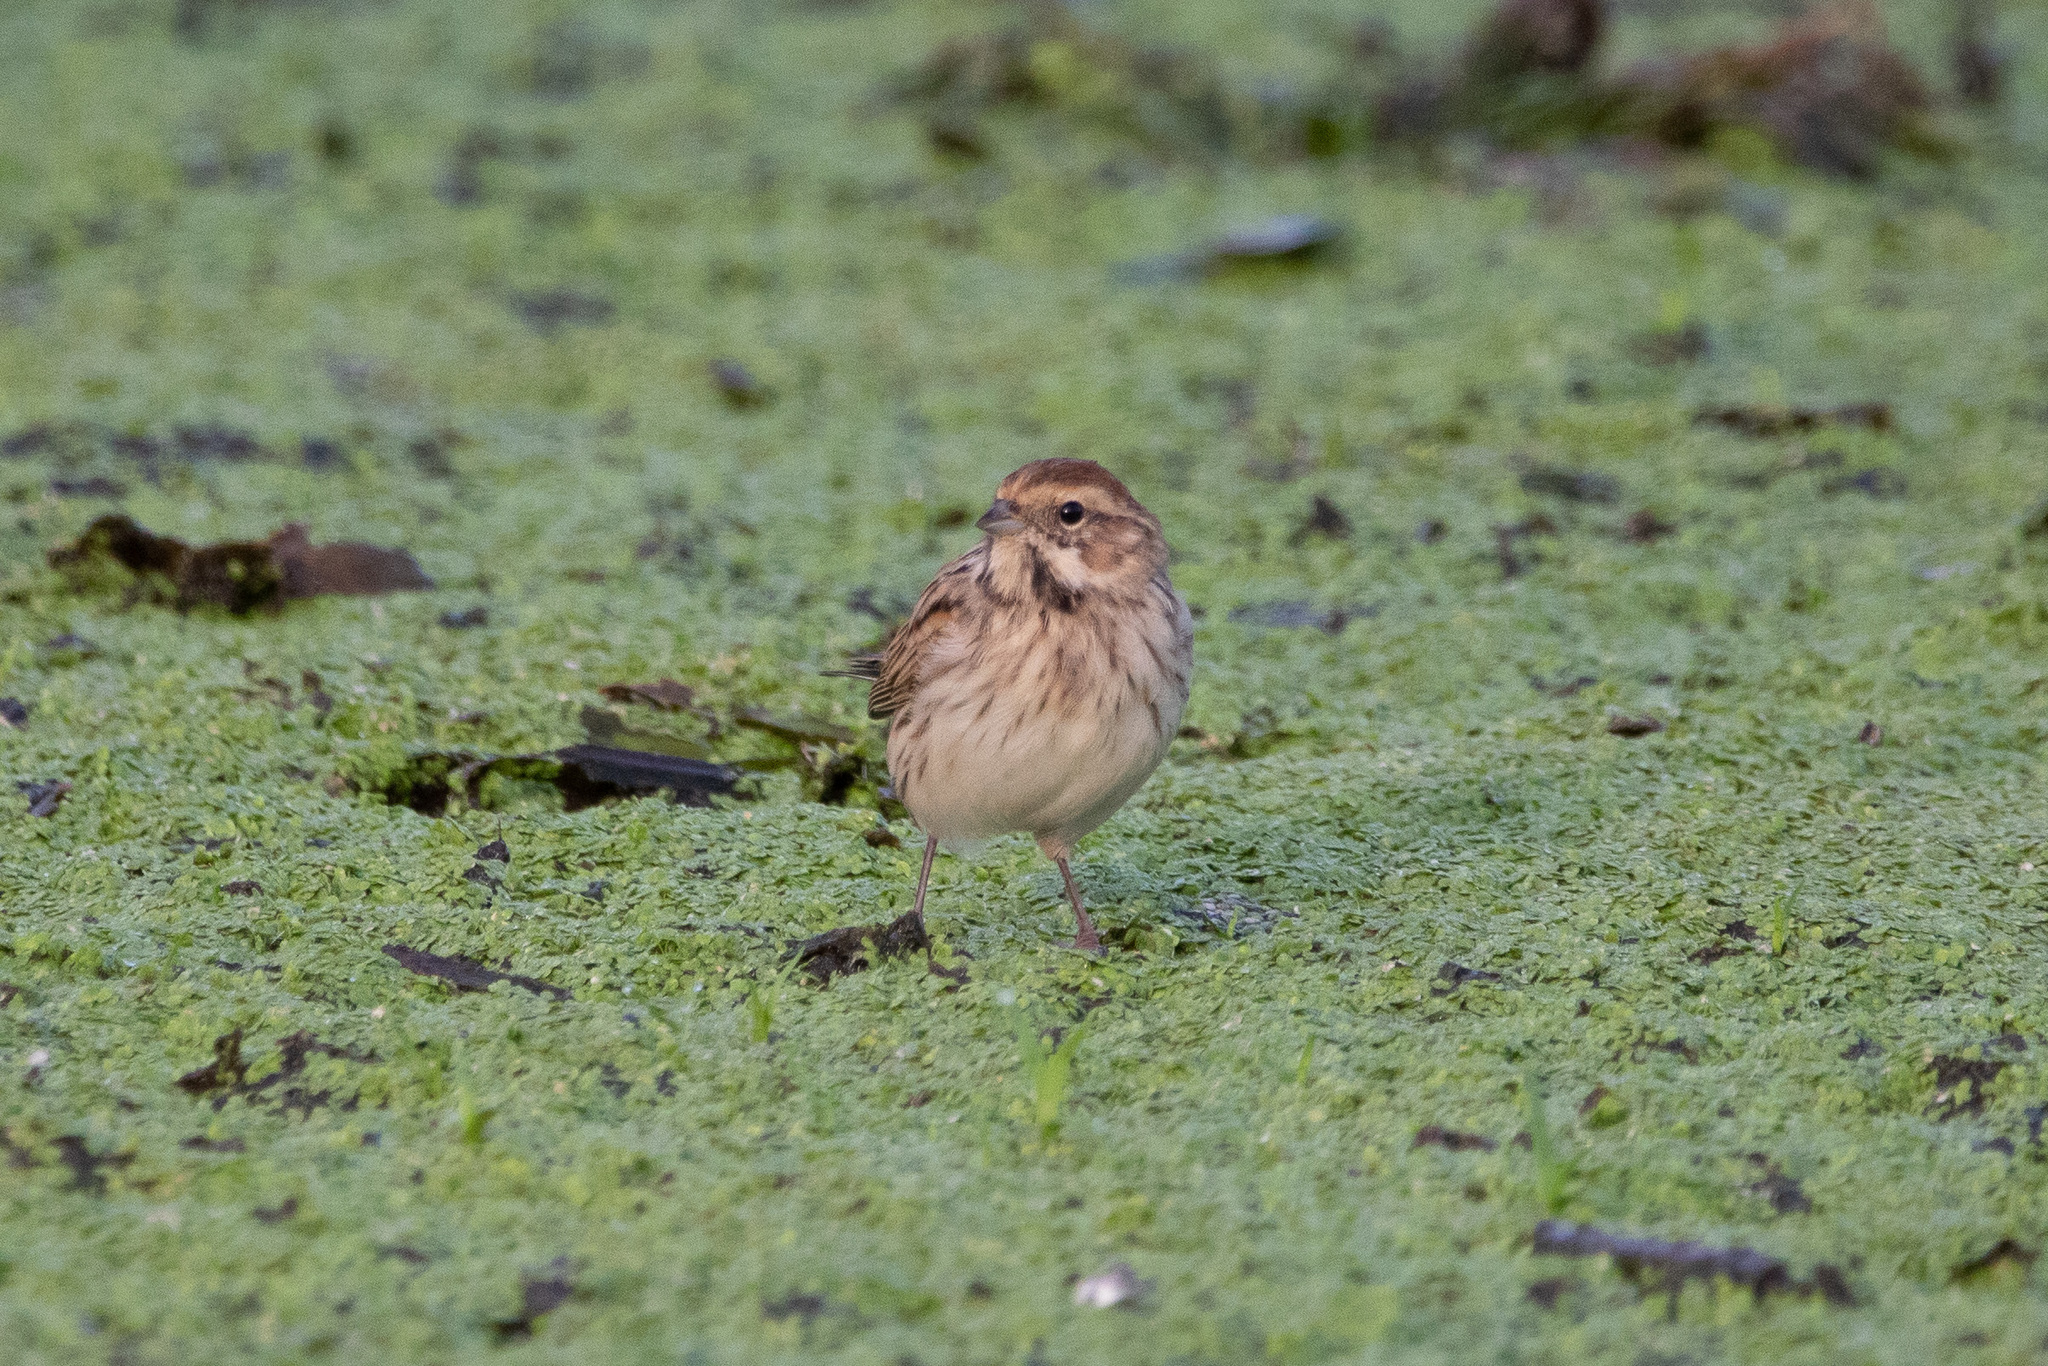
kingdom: Animalia
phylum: Chordata
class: Aves
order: Passeriformes
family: Emberizidae
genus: Emberiza
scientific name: Emberiza schoeniclus
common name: Reed bunting
